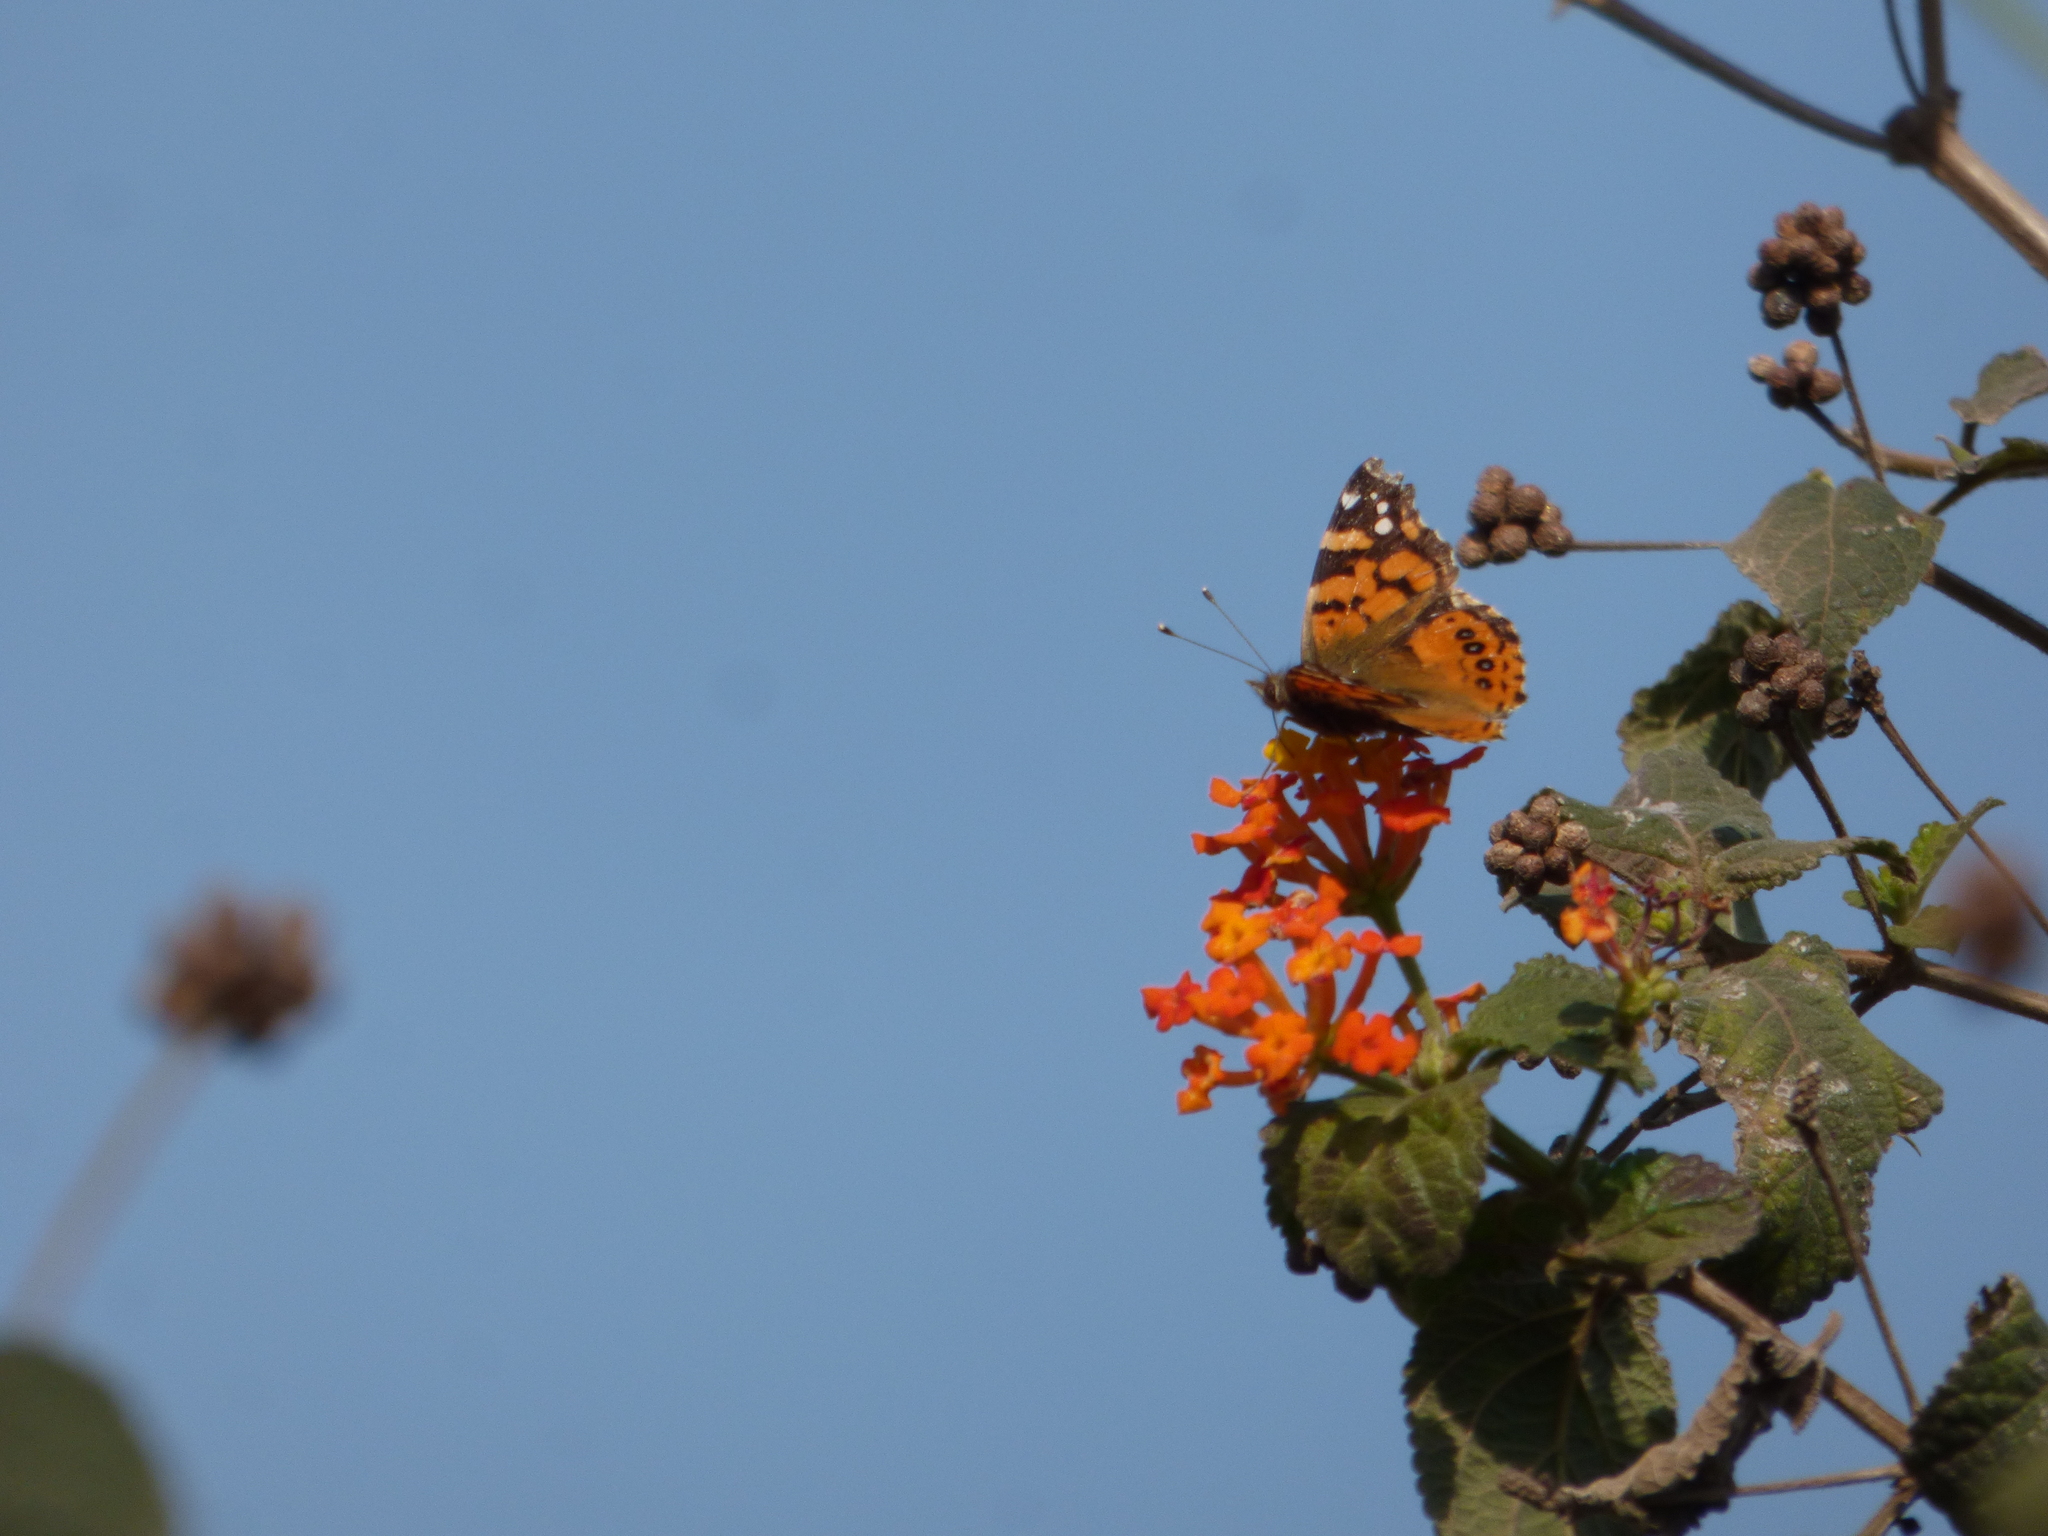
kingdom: Animalia
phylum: Arthropoda
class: Insecta
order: Lepidoptera
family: Nymphalidae
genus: Vanessa
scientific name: Vanessa carye
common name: Subtropical lady
